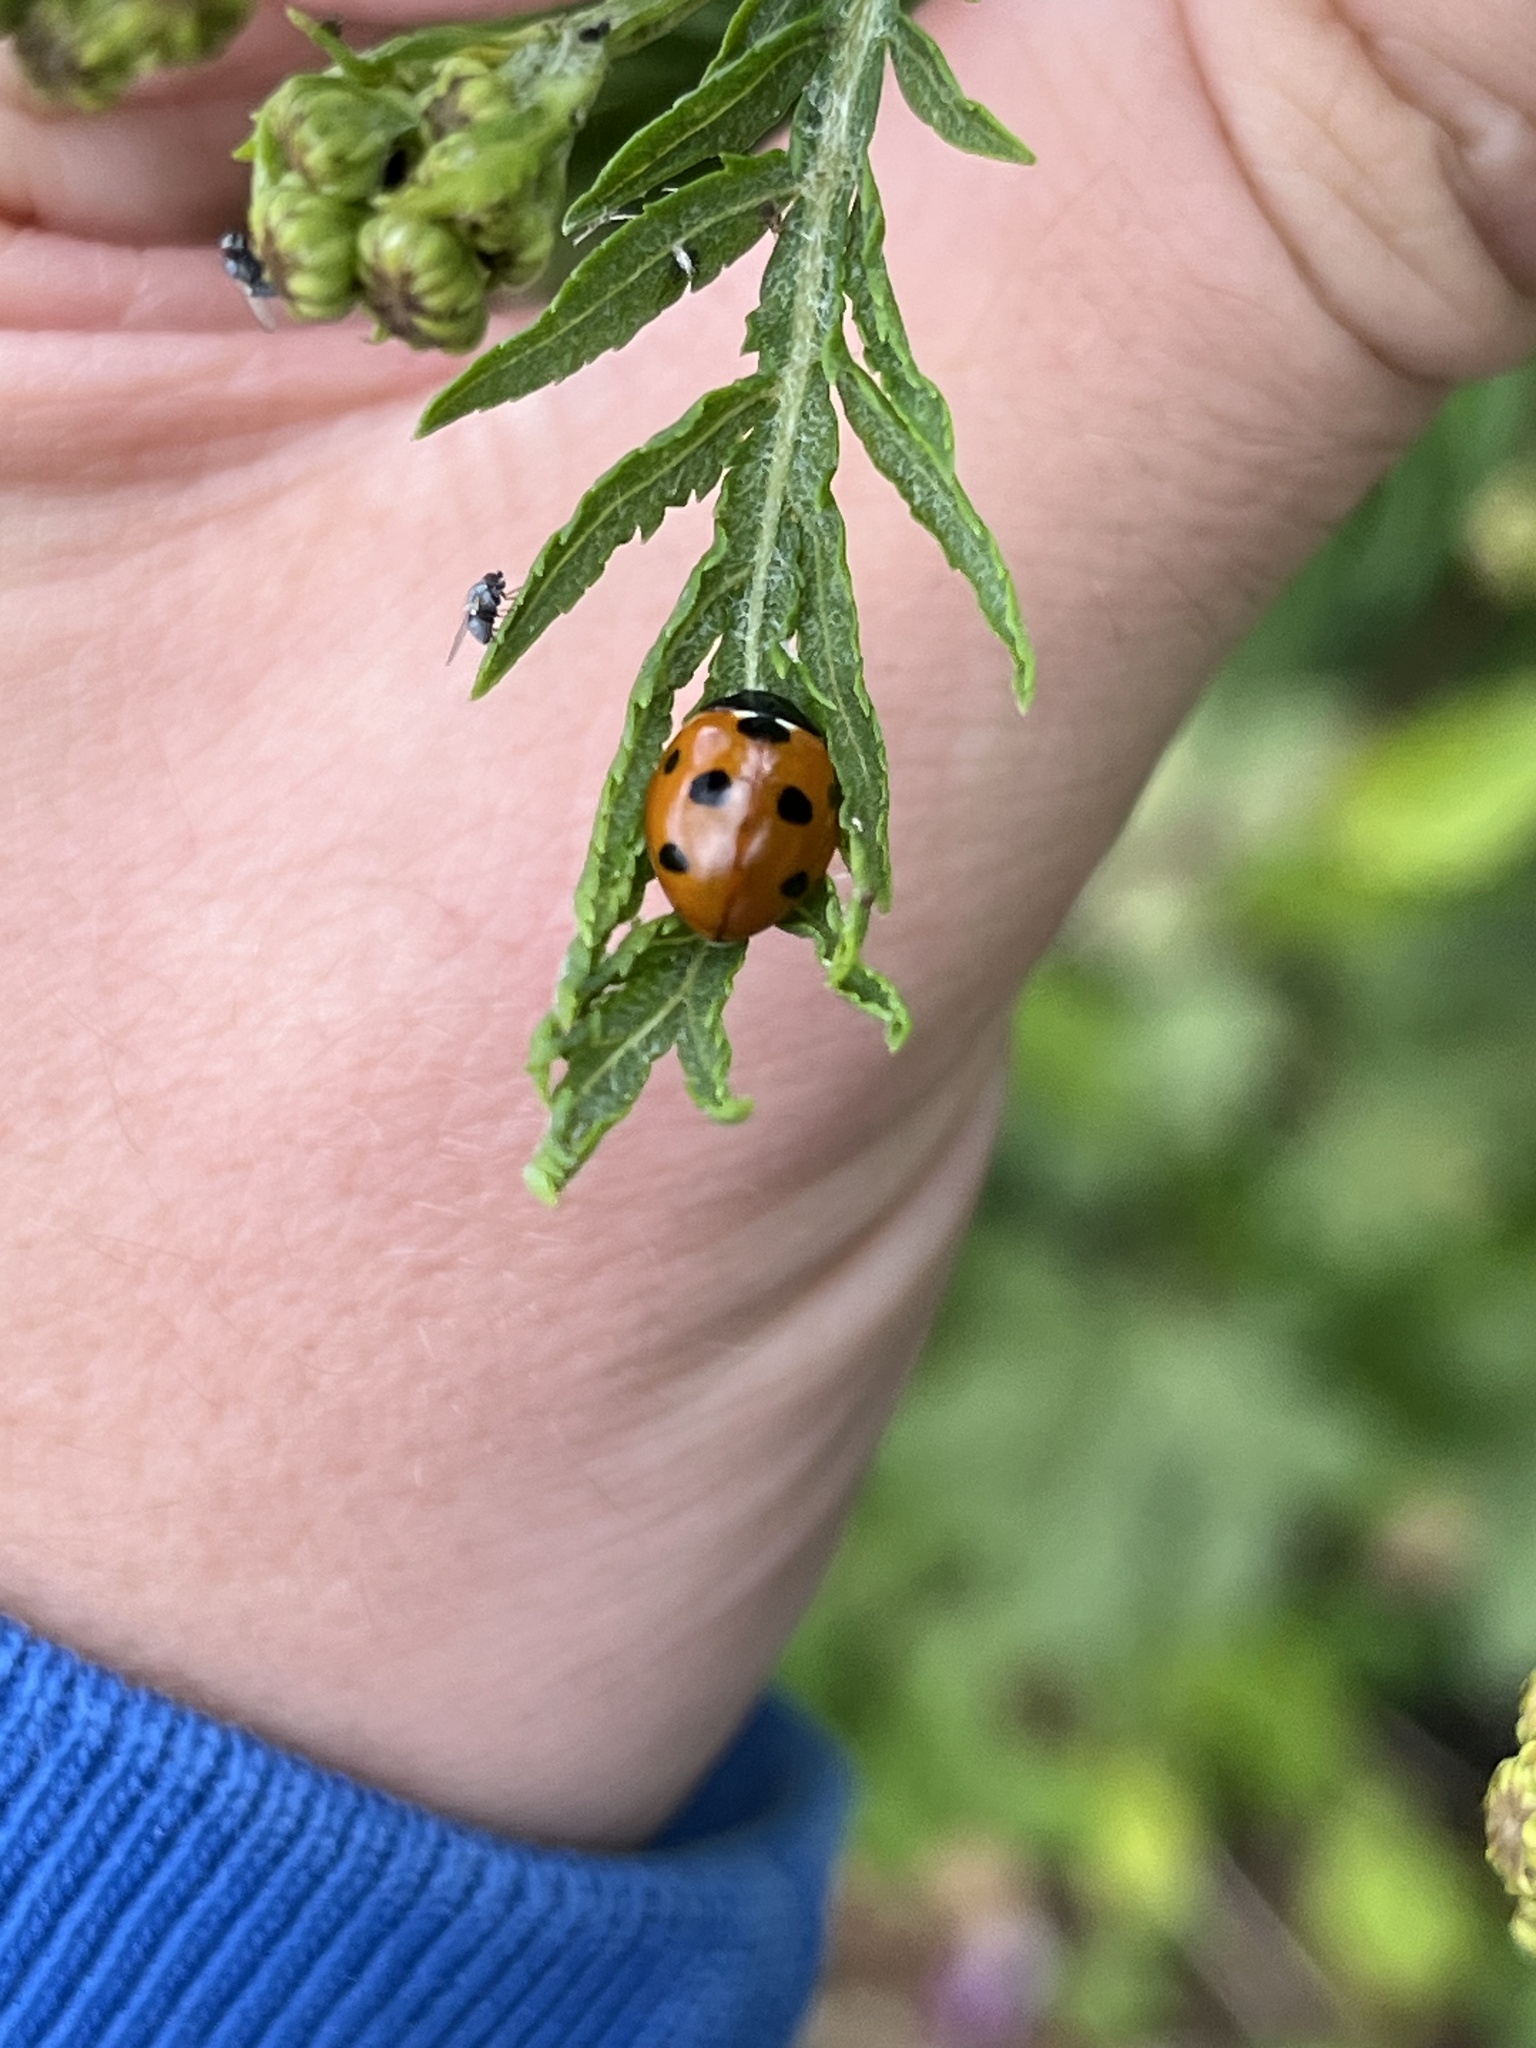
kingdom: Animalia
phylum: Arthropoda
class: Insecta
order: Coleoptera
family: Coccinellidae
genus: Coccinella
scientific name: Coccinella septempunctata
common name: Sevenspotted lady beetle
